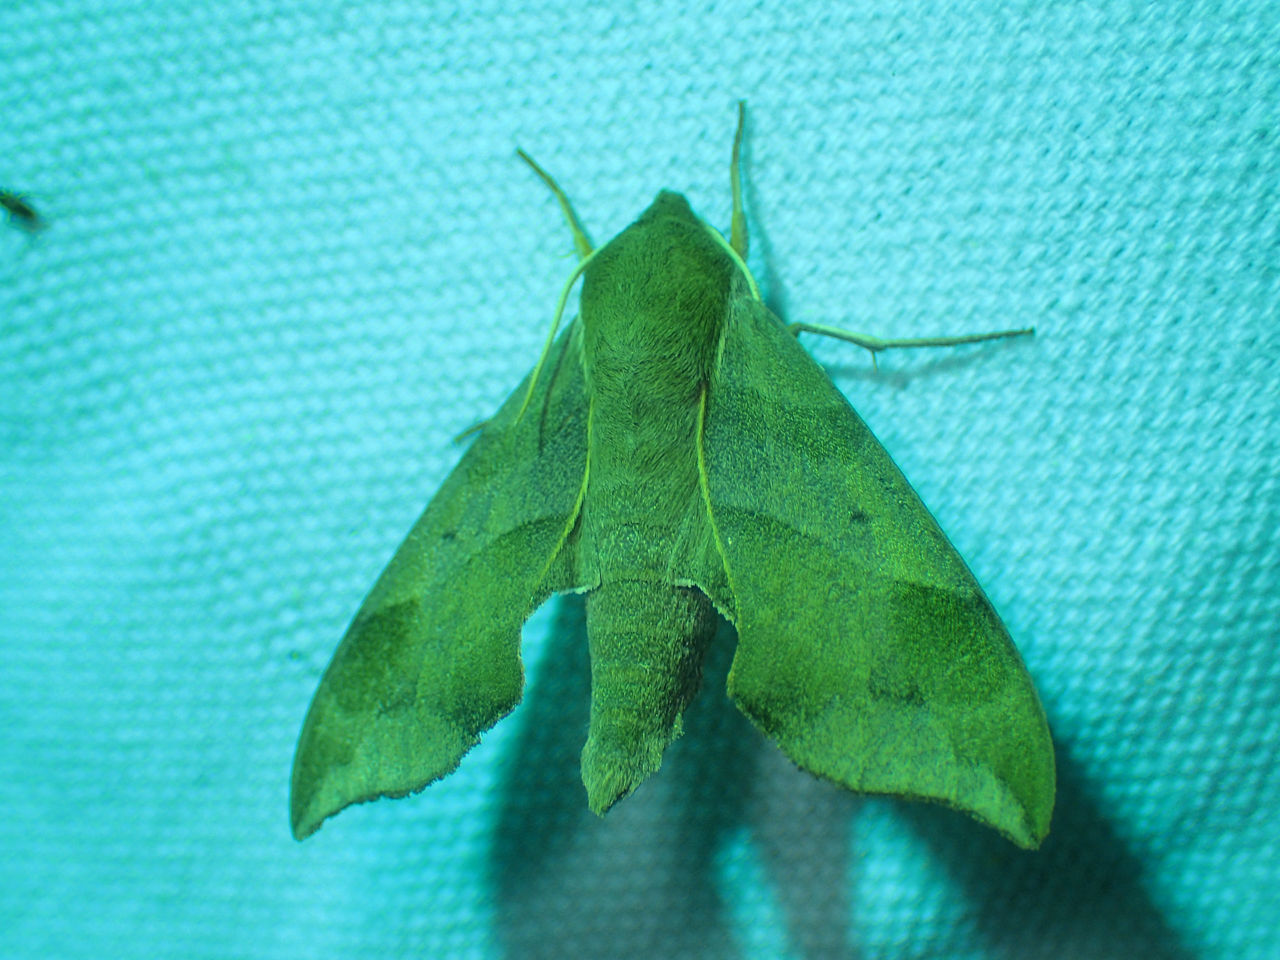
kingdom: Animalia
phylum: Arthropoda
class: Insecta
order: Lepidoptera
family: Sphingidae
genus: Darapsa
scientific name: Darapsa myron
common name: Hog sphinx
